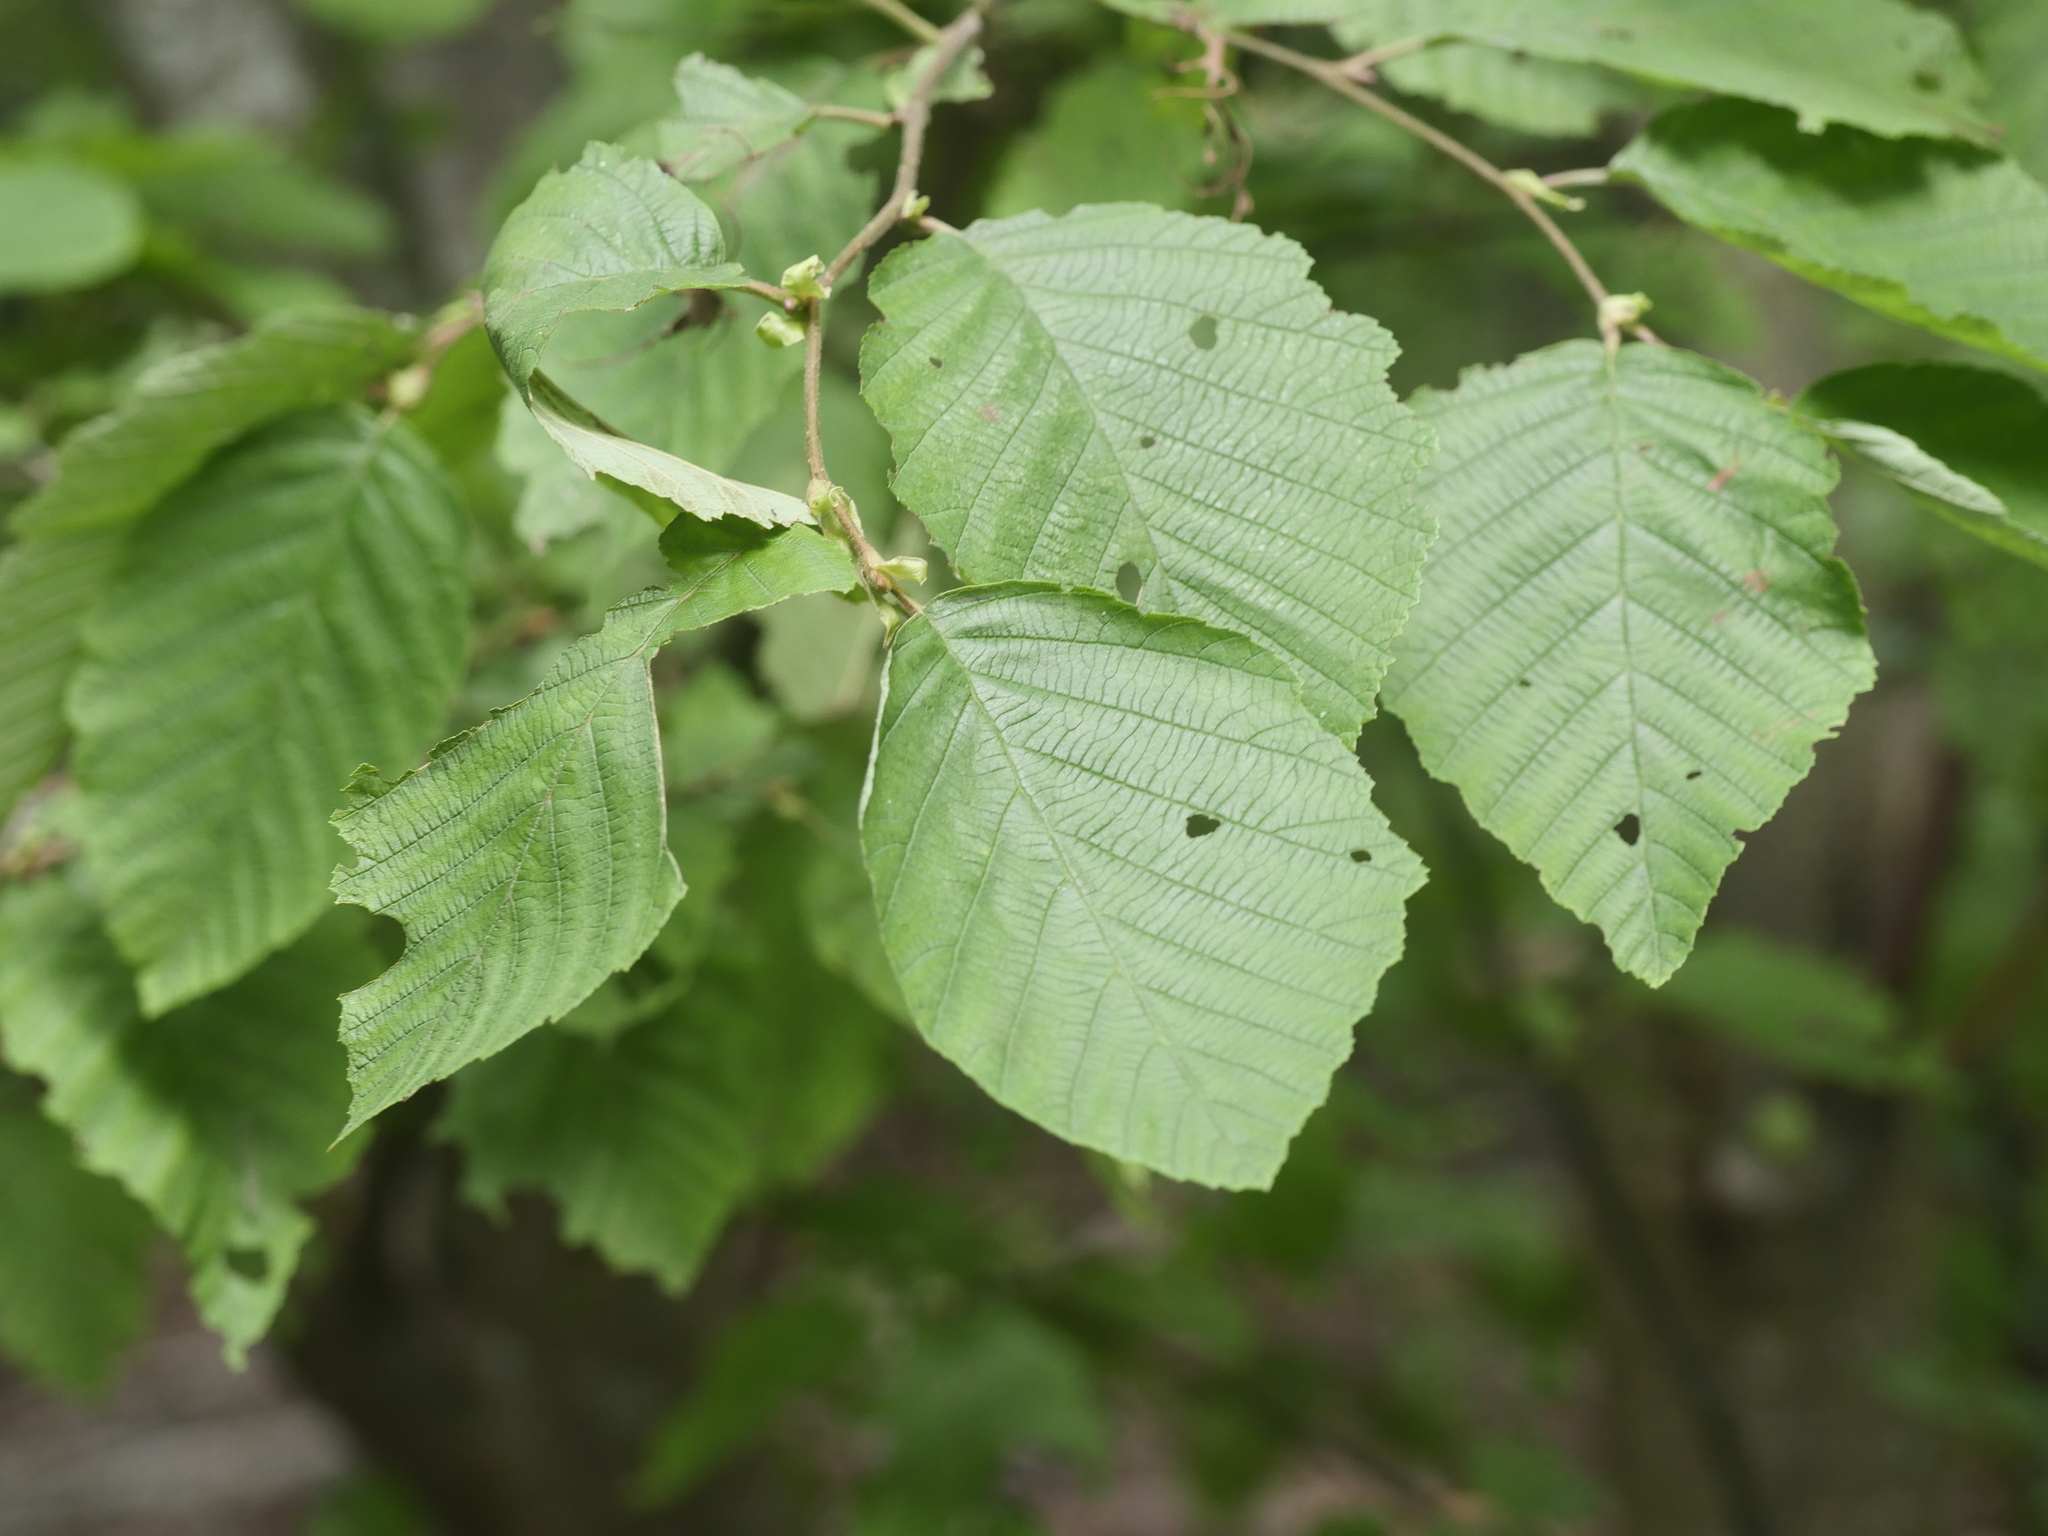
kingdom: Plantae
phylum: Tracheophyta
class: Magnoliopsida
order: Fagales
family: Betulaceae
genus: Alnus
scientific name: Alnus incana
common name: Grey alder
